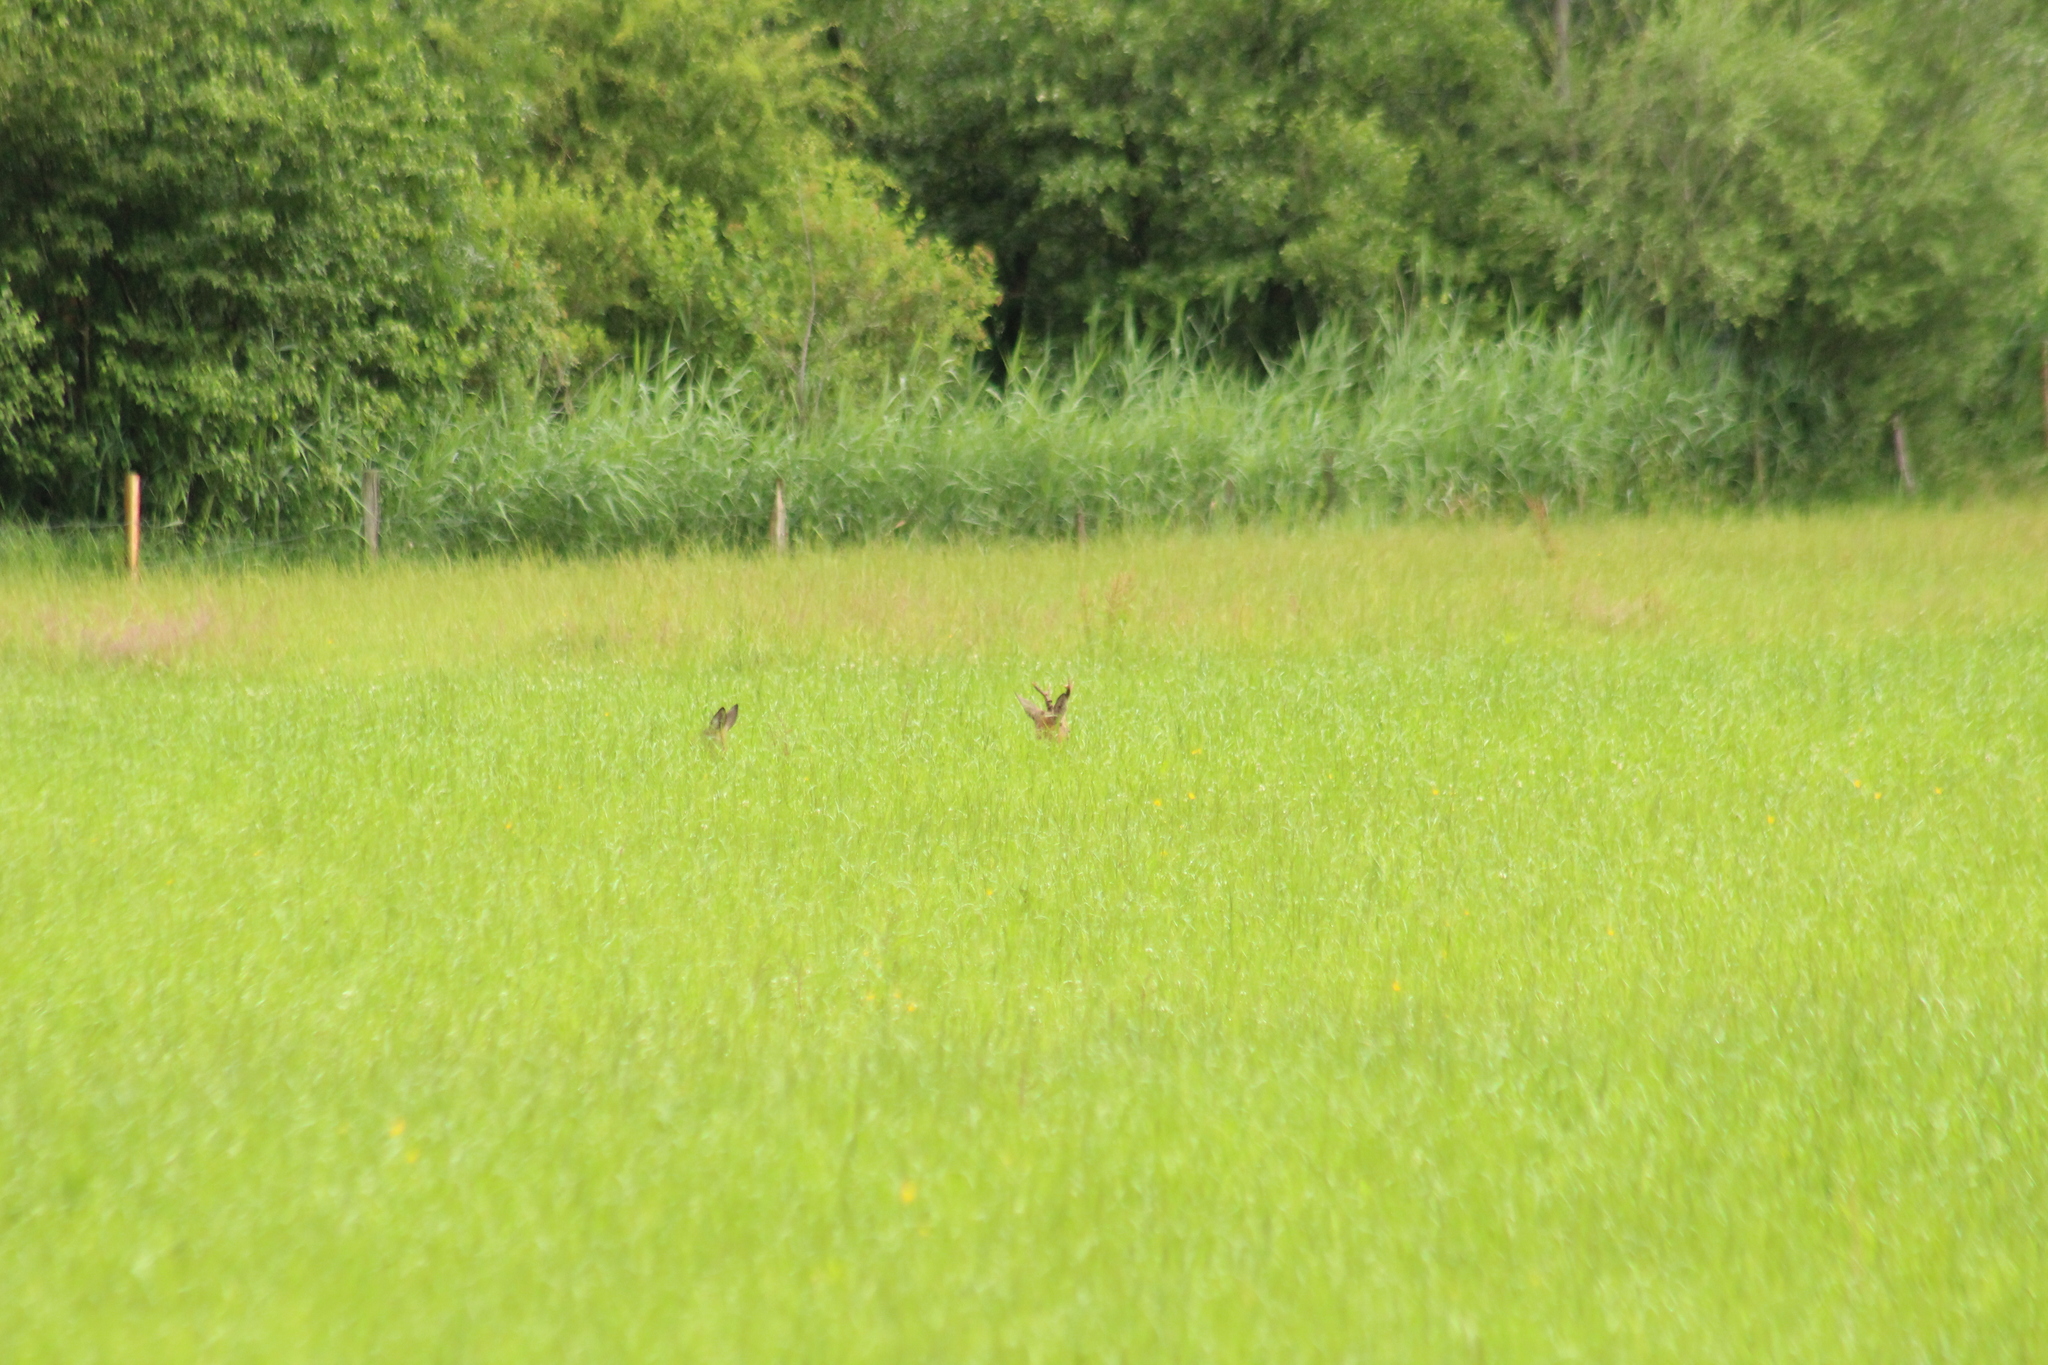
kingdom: Animalia
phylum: Chordata
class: Mammalia
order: Artiodactyla
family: Cervidae
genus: Capreolus
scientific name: Capreolus capreolus
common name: Western roe deer
